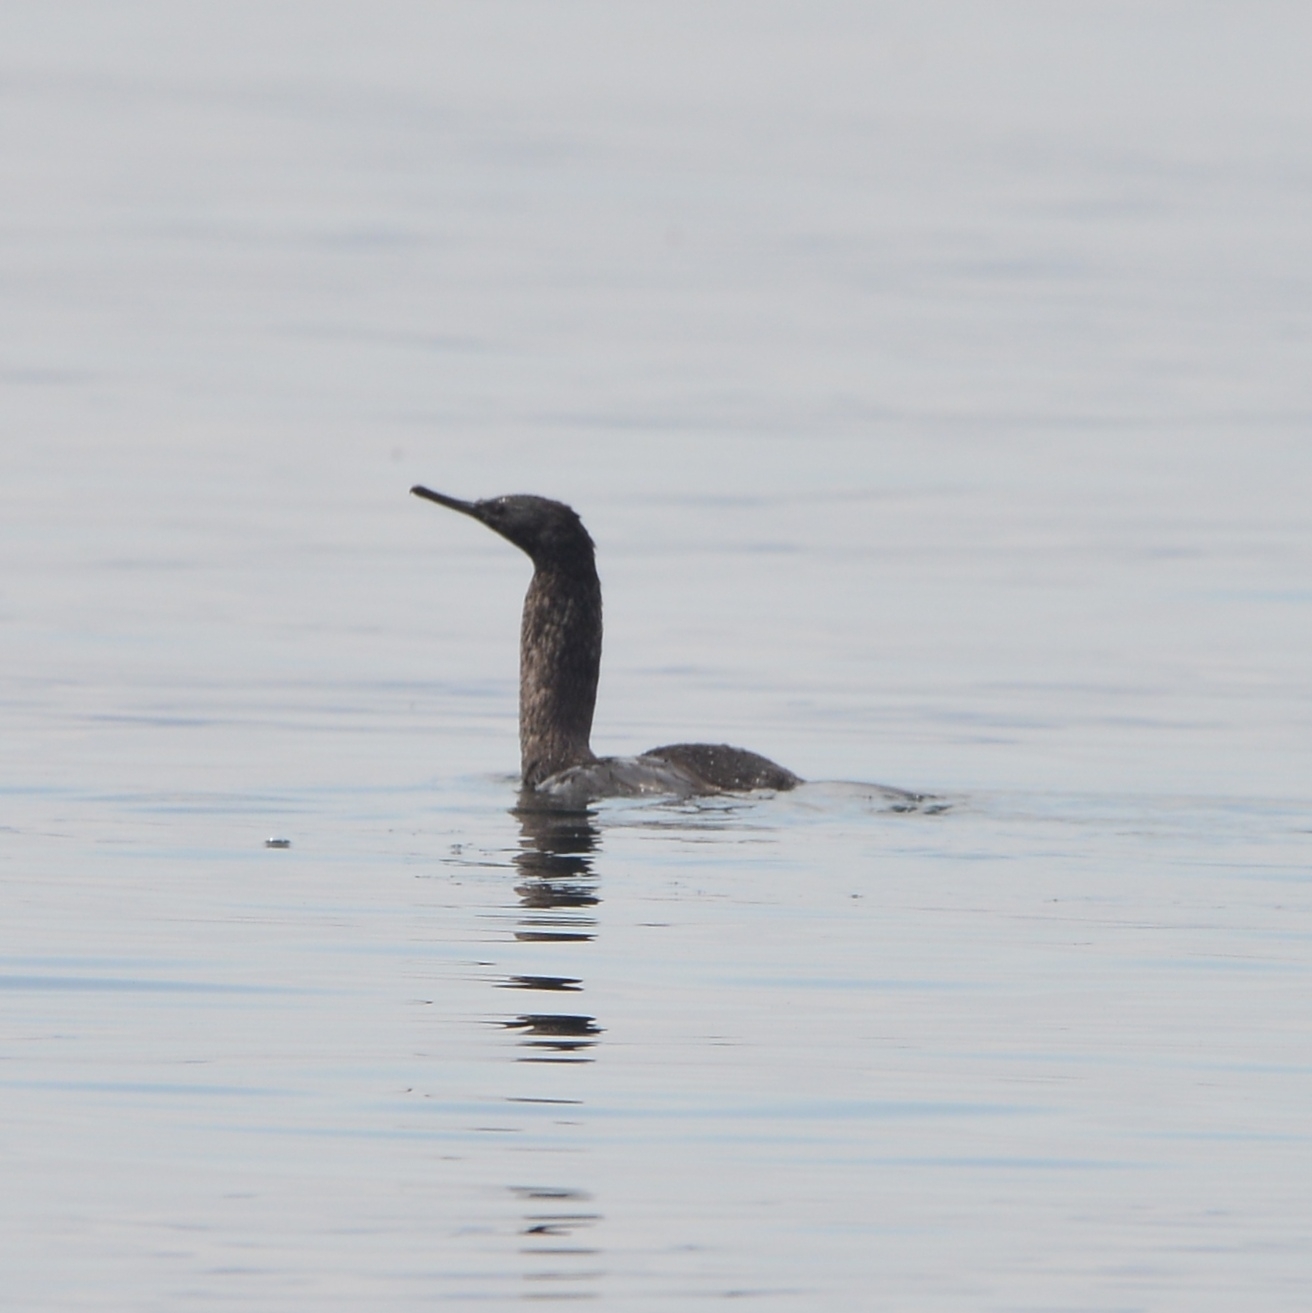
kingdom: Animalia
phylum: Chordata
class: Aves
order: Suliformes
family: Phalacrocoracidae
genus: Phalacrocorax
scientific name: Phalacrocorax pelagicus
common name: Pelagic cormorant
